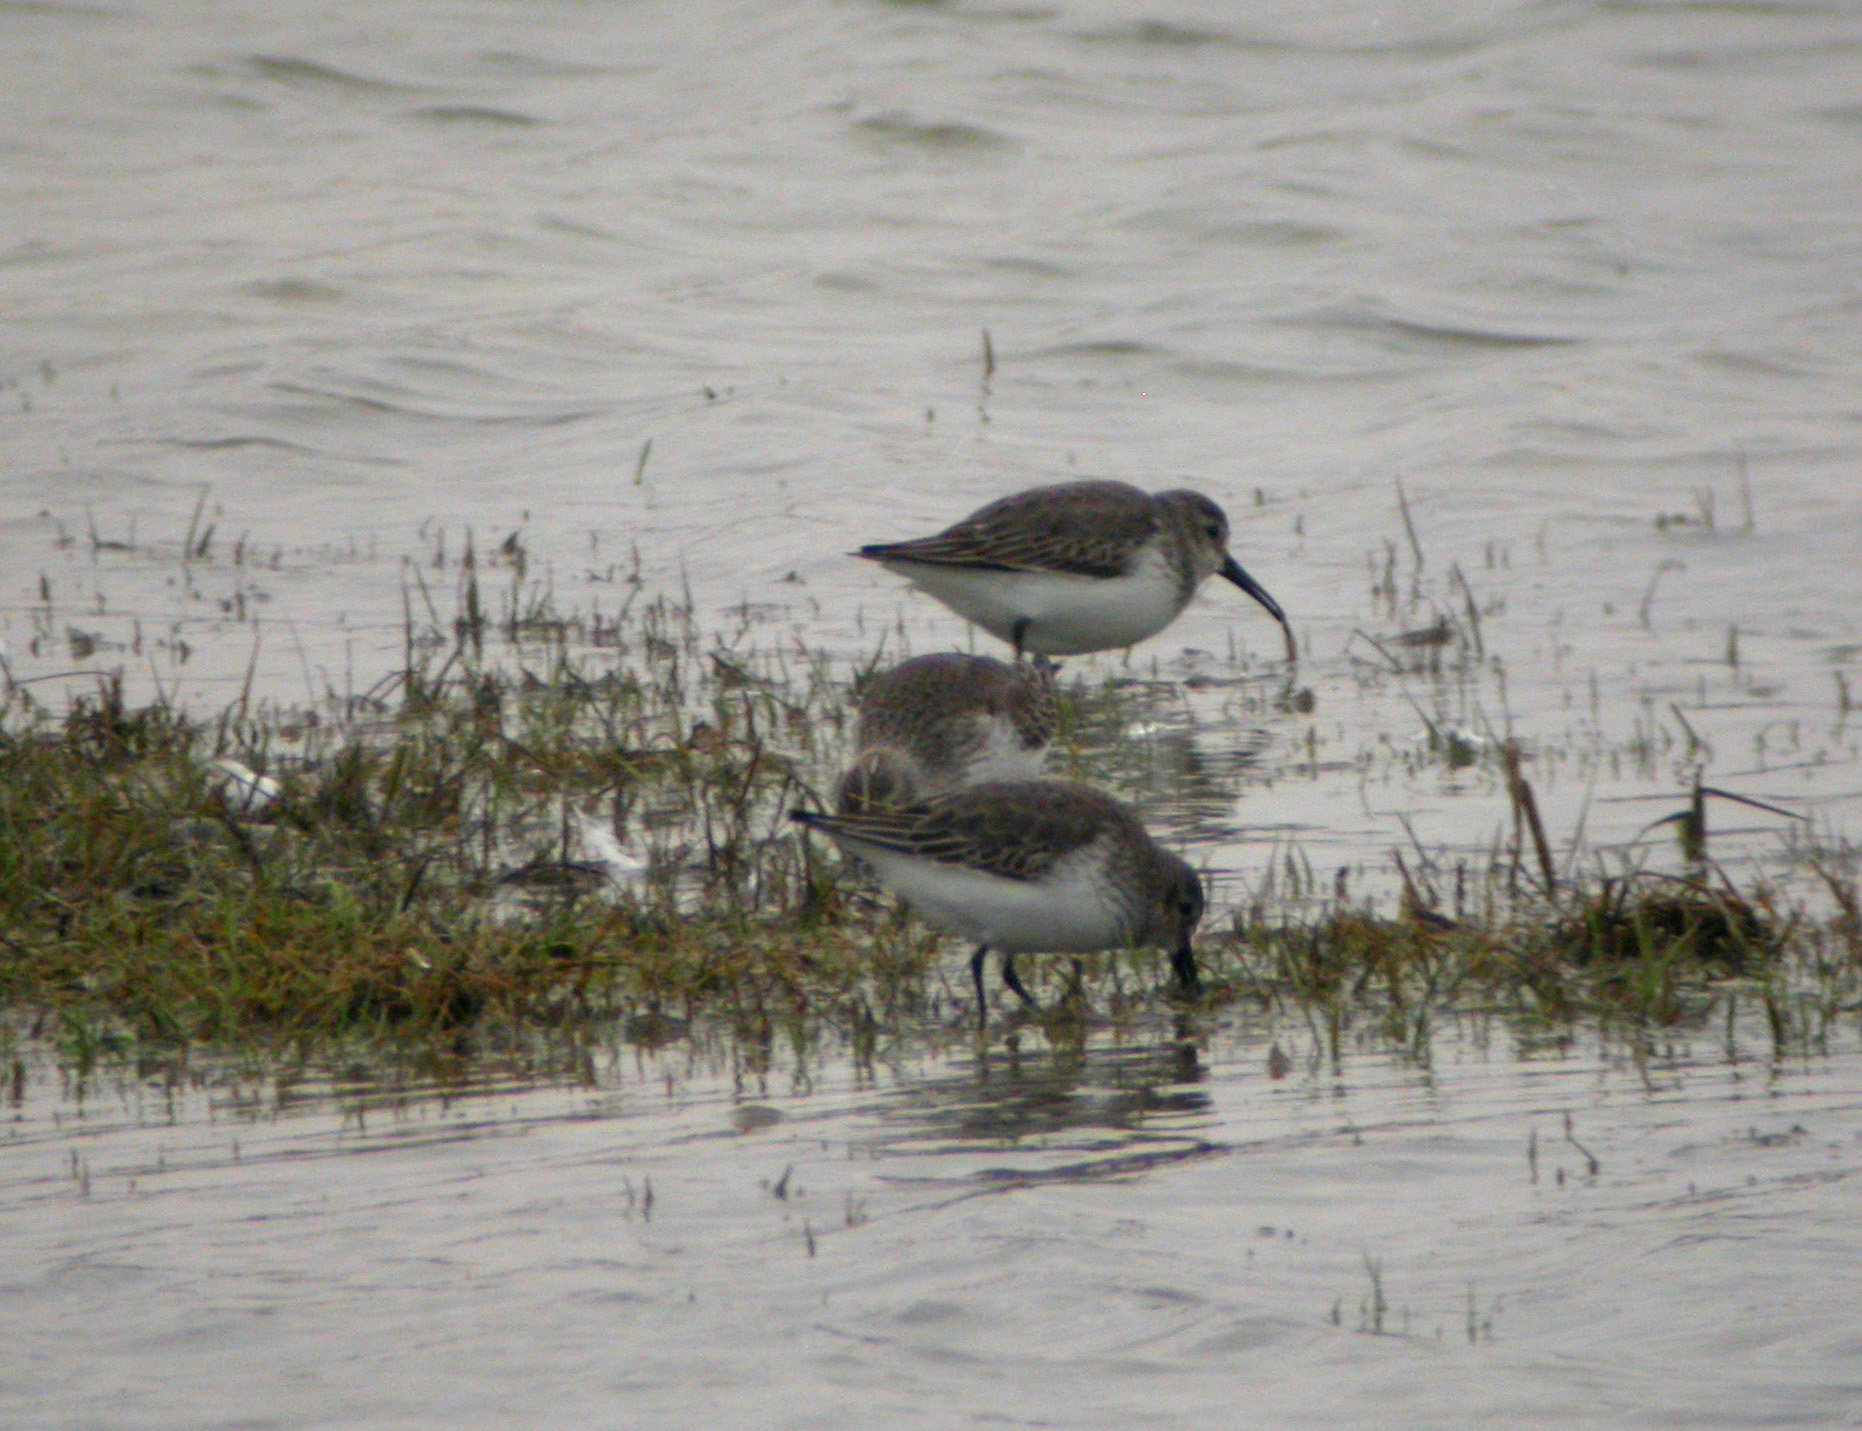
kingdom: Animalia
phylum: Chordata
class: Aves
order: Charadriiformes
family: Scolopacidae
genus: Calidris
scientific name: Calidris alpina
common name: Dunlin
